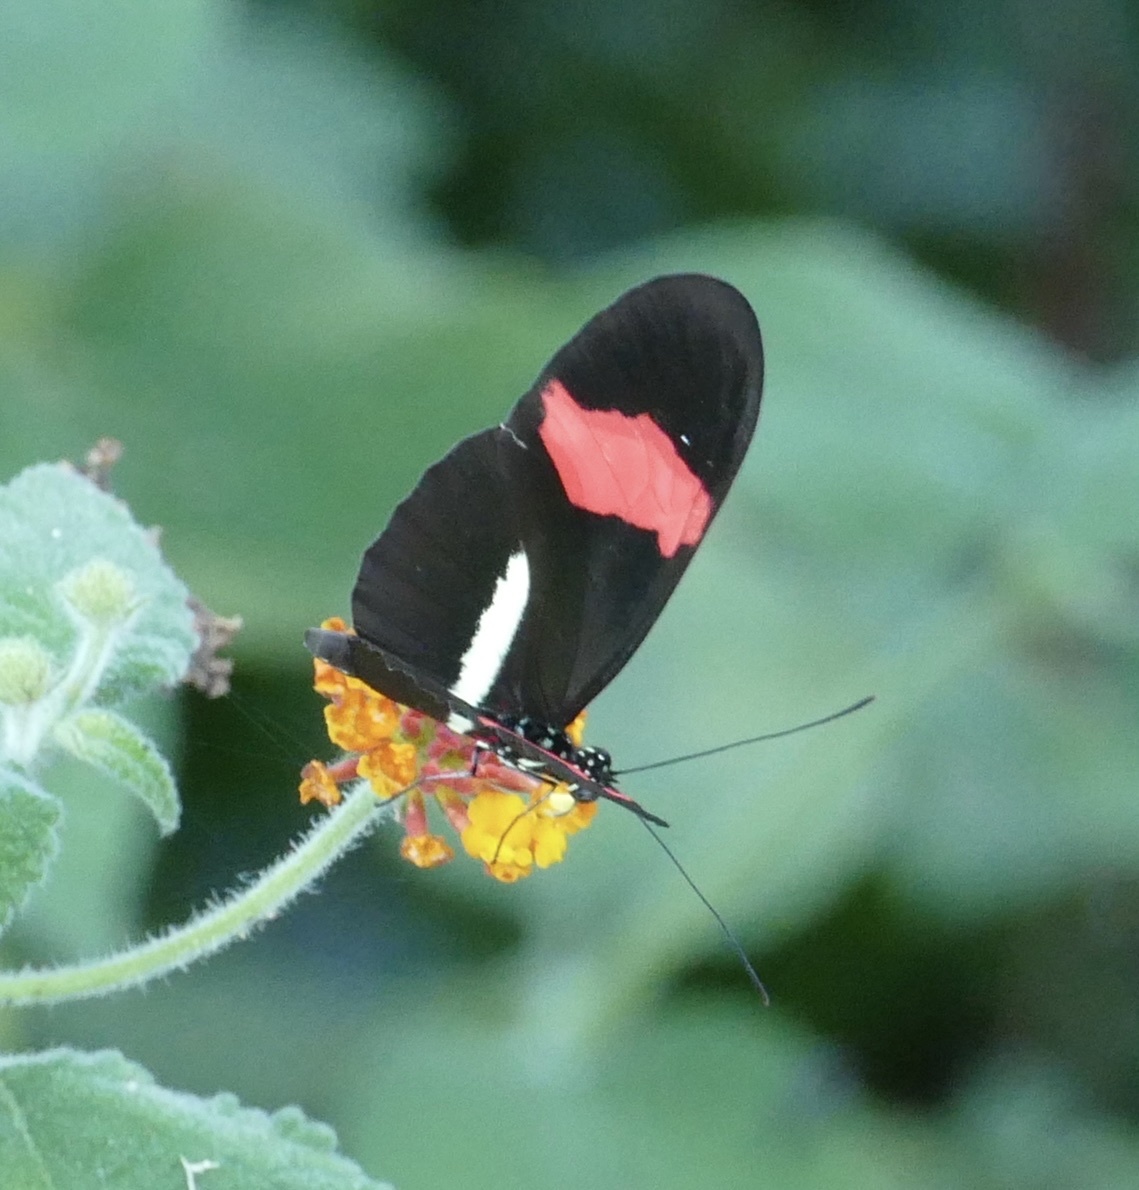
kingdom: Animalia
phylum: Arthropoda
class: Insecta
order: Lepidoptera
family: Nymphalidae
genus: Heliconius
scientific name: Heliconius erato
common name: Common patch longwing
